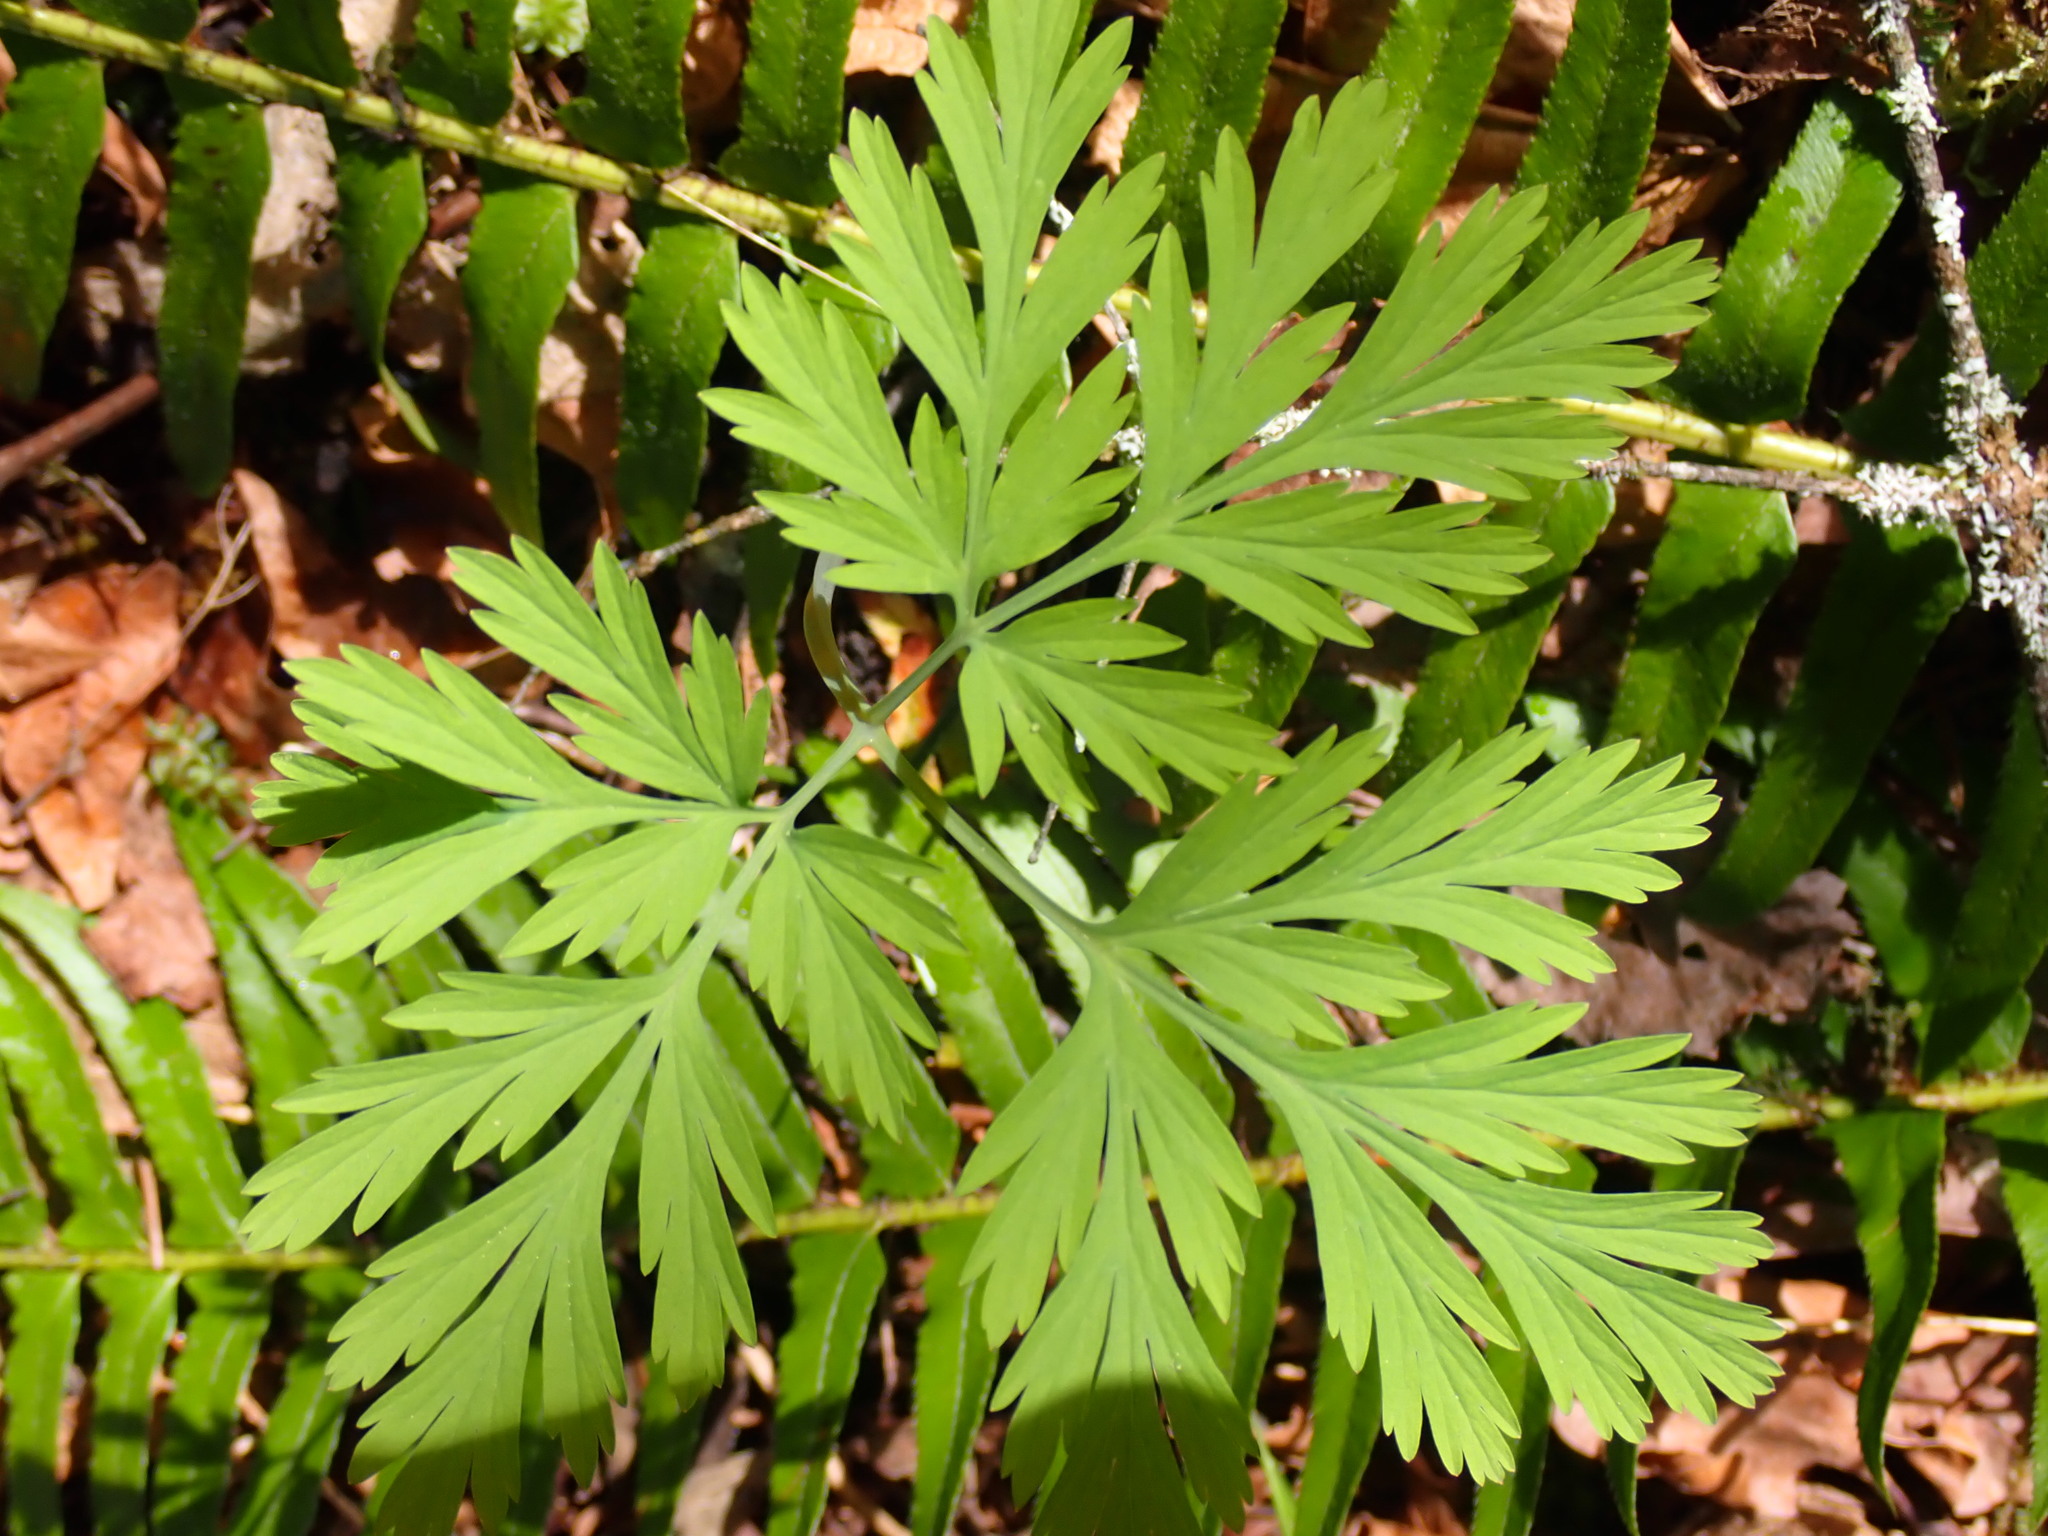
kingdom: Plantae
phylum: Tracheophyta
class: Magnoliopsida
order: Ranunculales
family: Papaveraceae
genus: Dicentra
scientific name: Dicentra formosa
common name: Bleeding-heart
